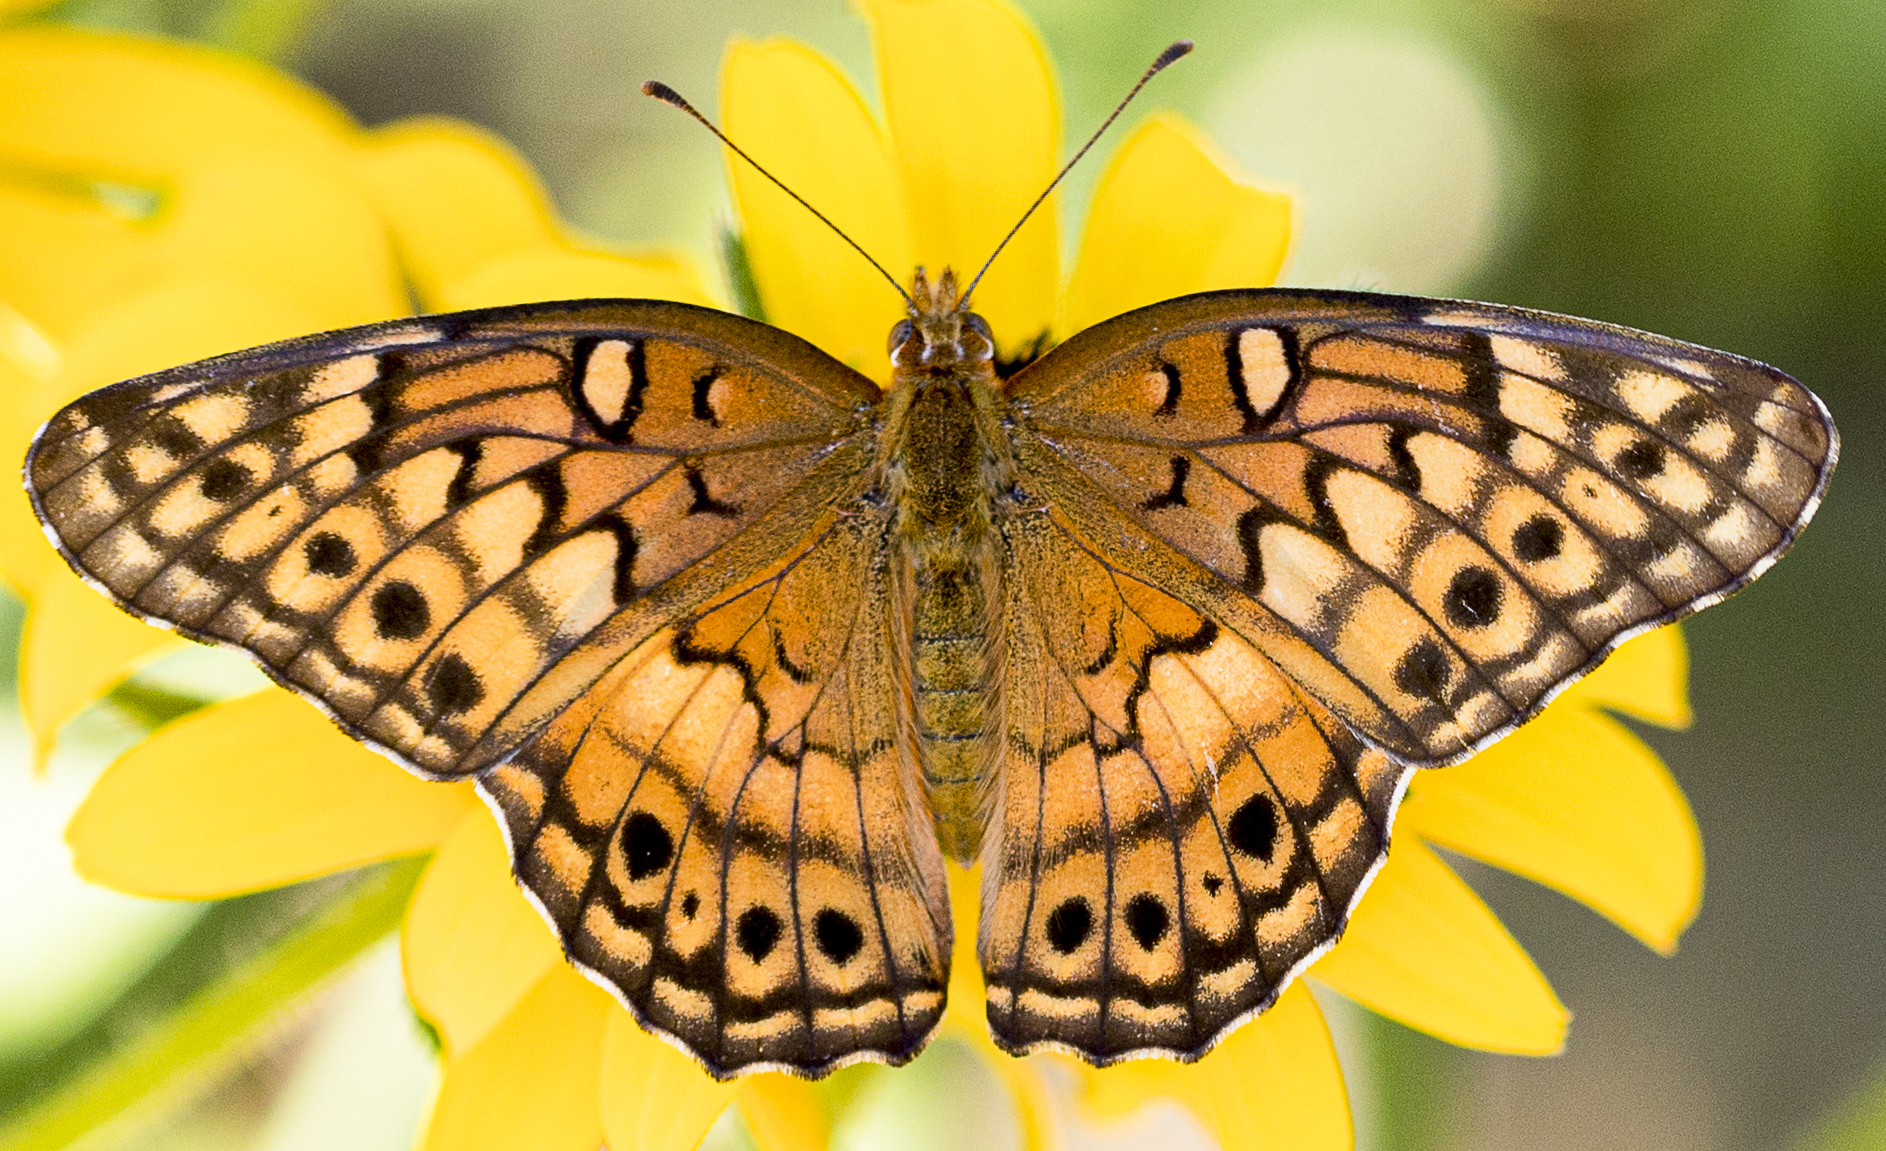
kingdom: Animalia
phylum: Arthropoda
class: Insecta
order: Lepidoptera
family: Nymphalidae
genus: Euptoieta
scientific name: Euptoieta claudia
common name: Variegated fritillary
